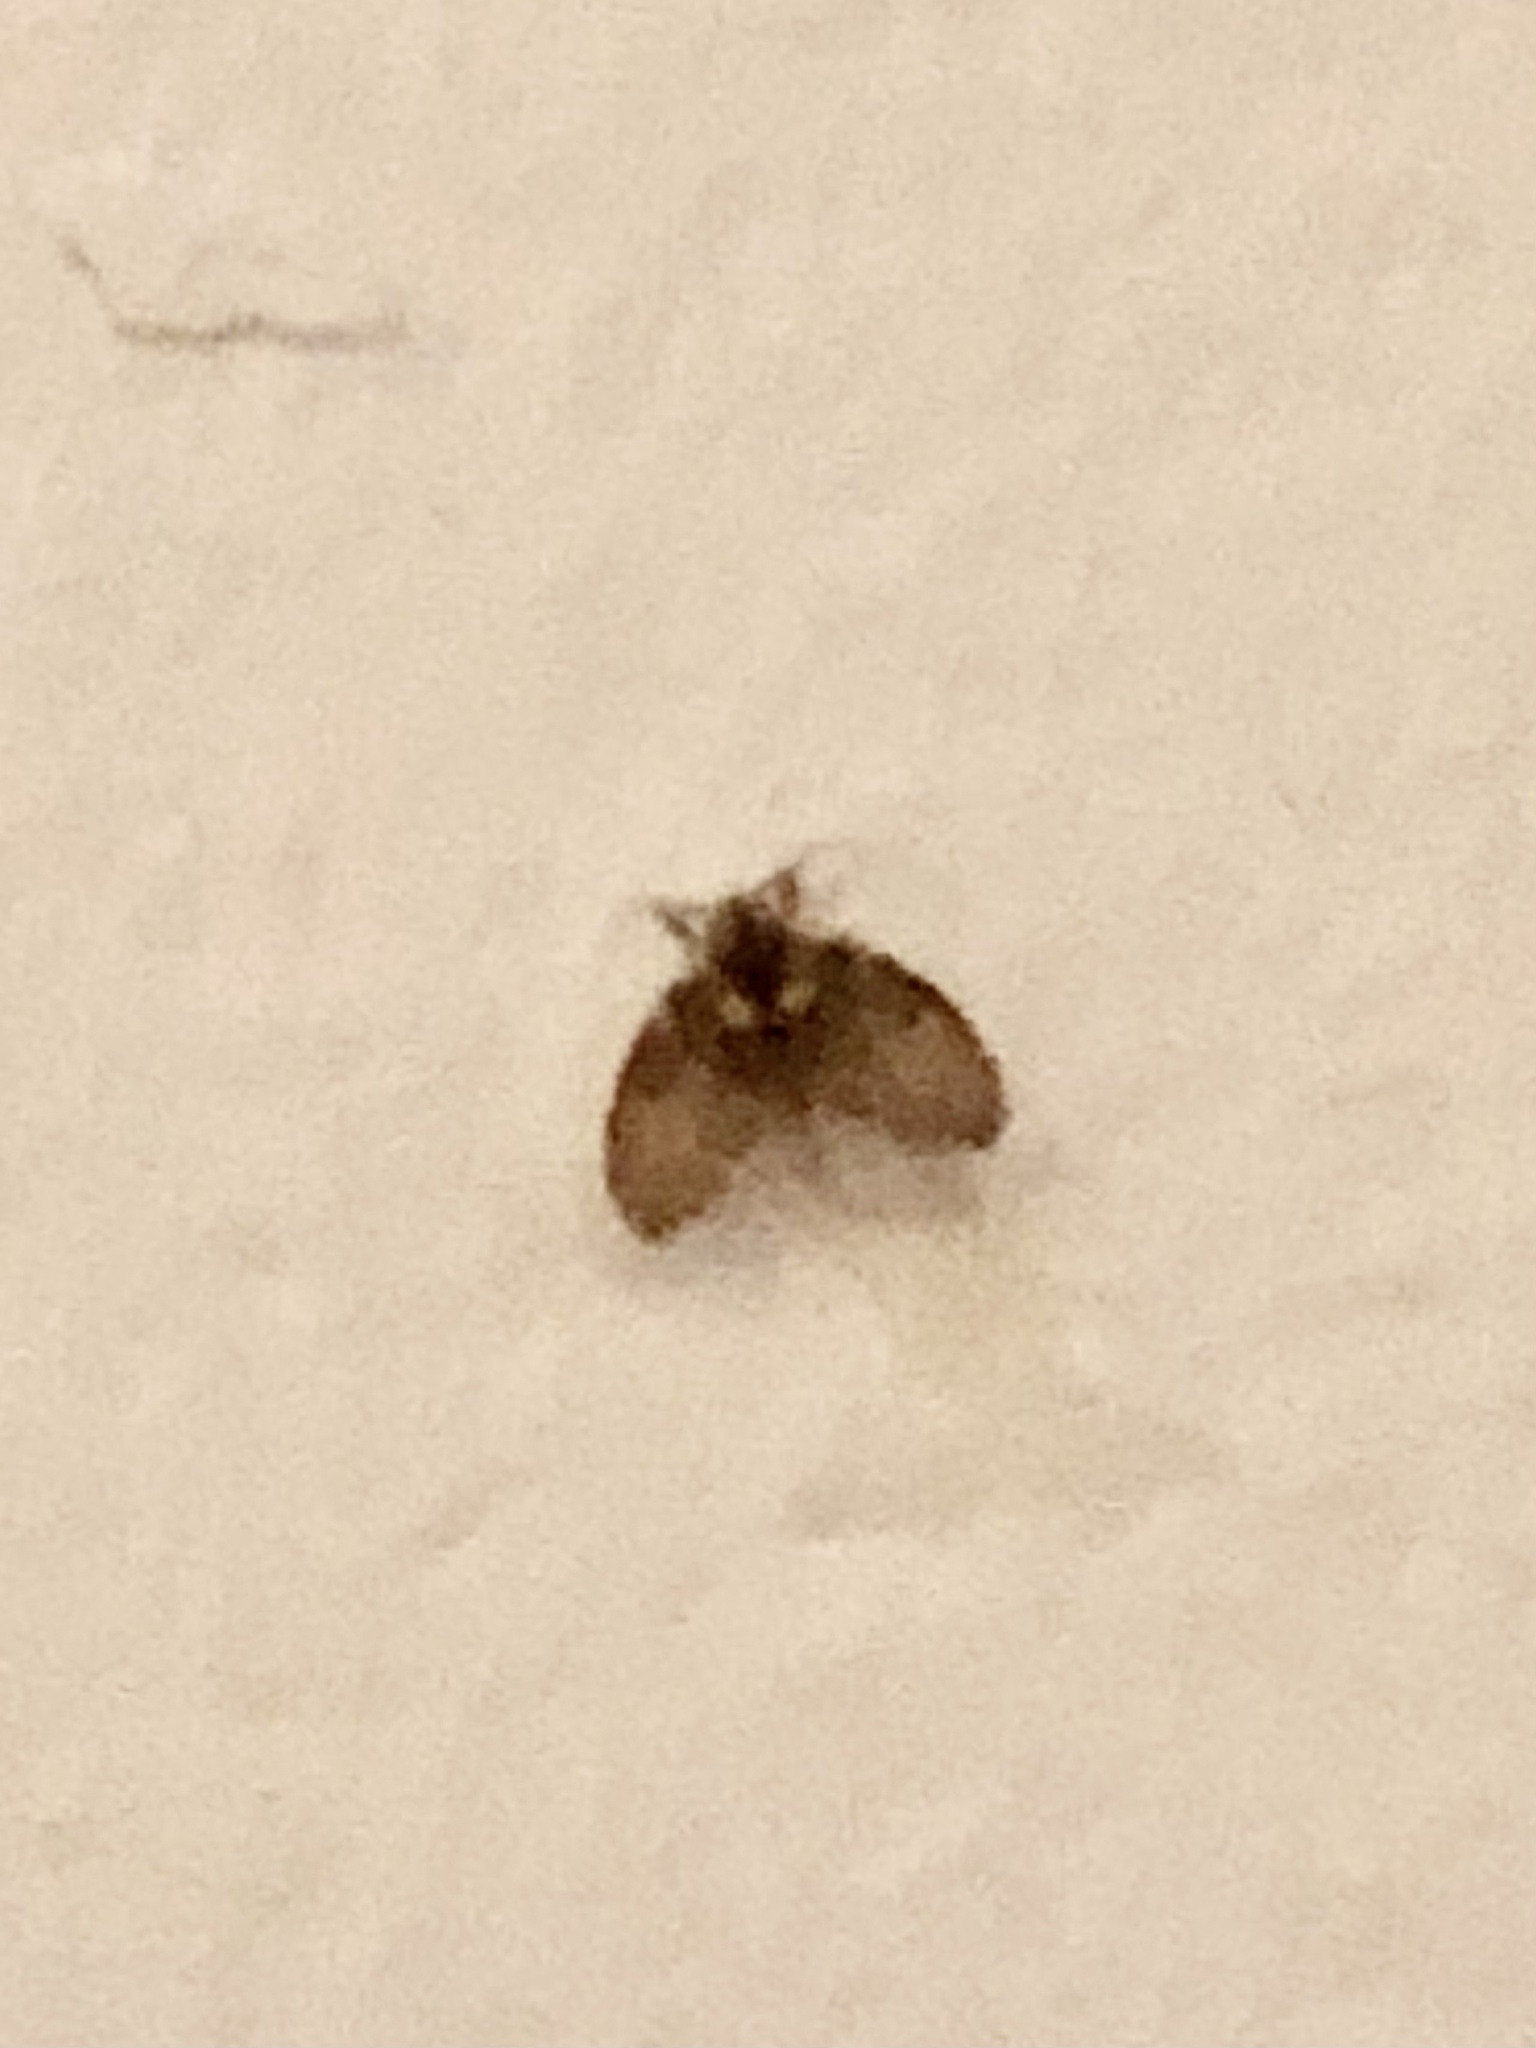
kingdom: Animalia
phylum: Arthropoda
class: Insecta
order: Diptera
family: Psychodidae
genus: Clogmia
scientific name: Clogmia albipunctatus
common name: White-spotted moth fly
